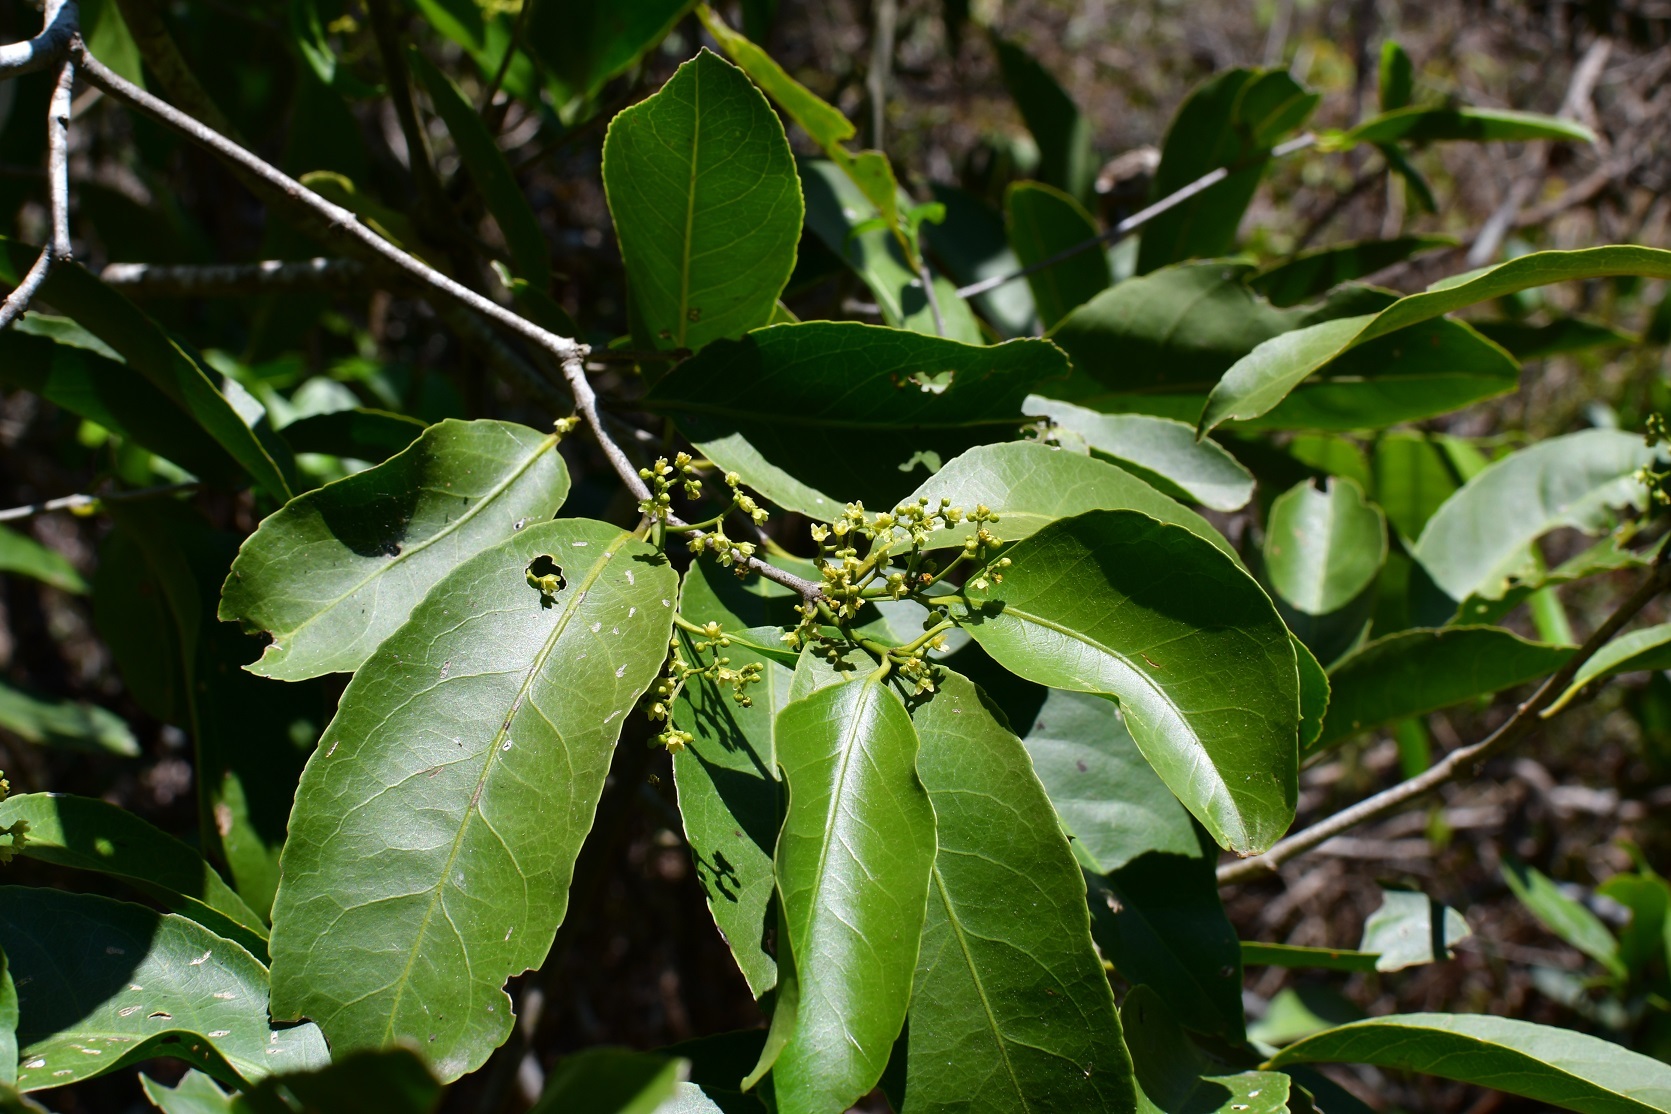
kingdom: Plantae
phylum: Tracheophyta
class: Magnoliopsida
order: Celastrales
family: Celastraceae
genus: Pristimera
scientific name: Pristimera celastroides
